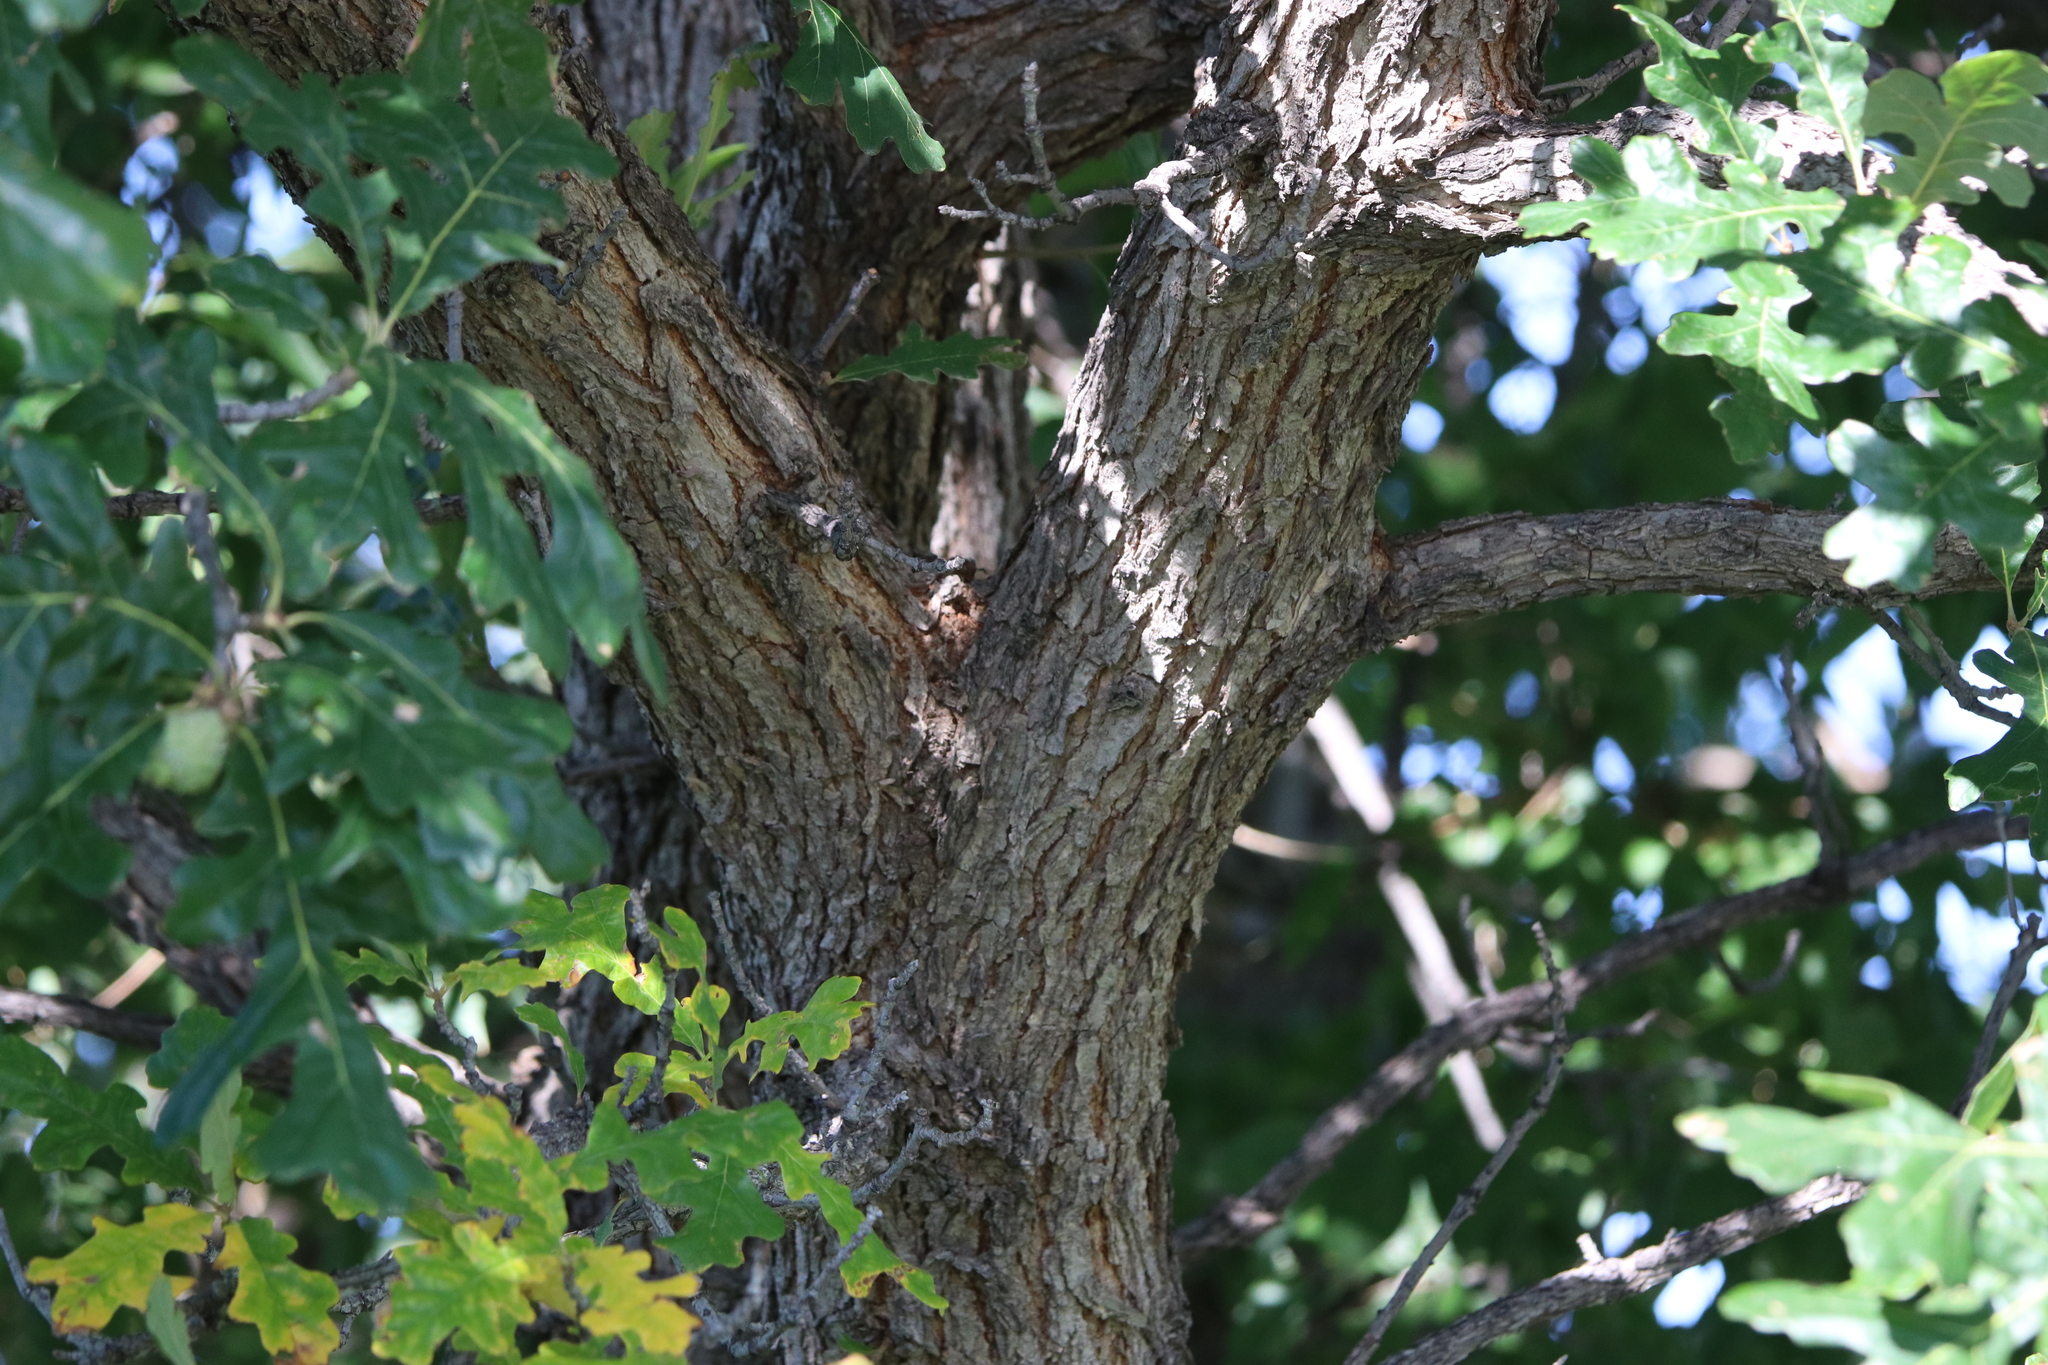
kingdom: Plantae
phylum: Tracheophyta
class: Magnoliopsida
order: Fagales
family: Fagaceae
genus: Quercus
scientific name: Quercus macrocarpa
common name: Bur oak
